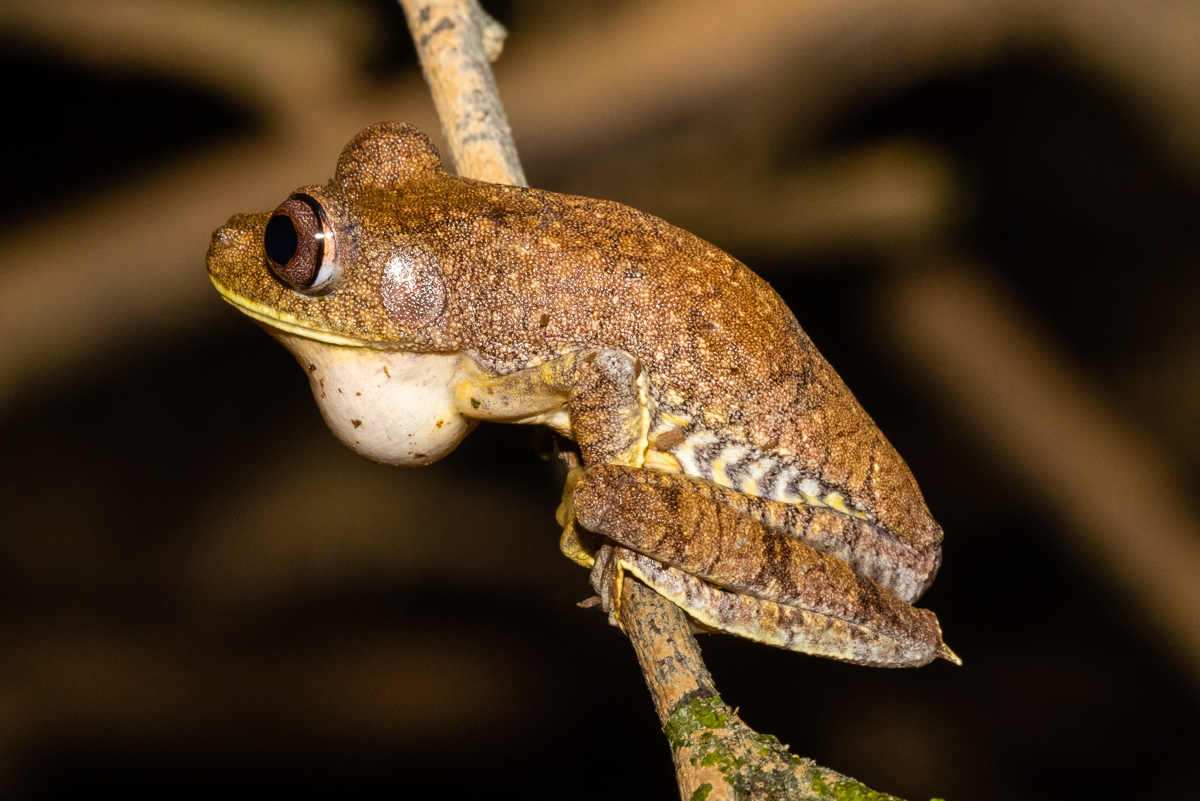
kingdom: Animalia
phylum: Chordata
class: Amphibia
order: Anura
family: Hylidae
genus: Boana
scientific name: Boana appendiculata
